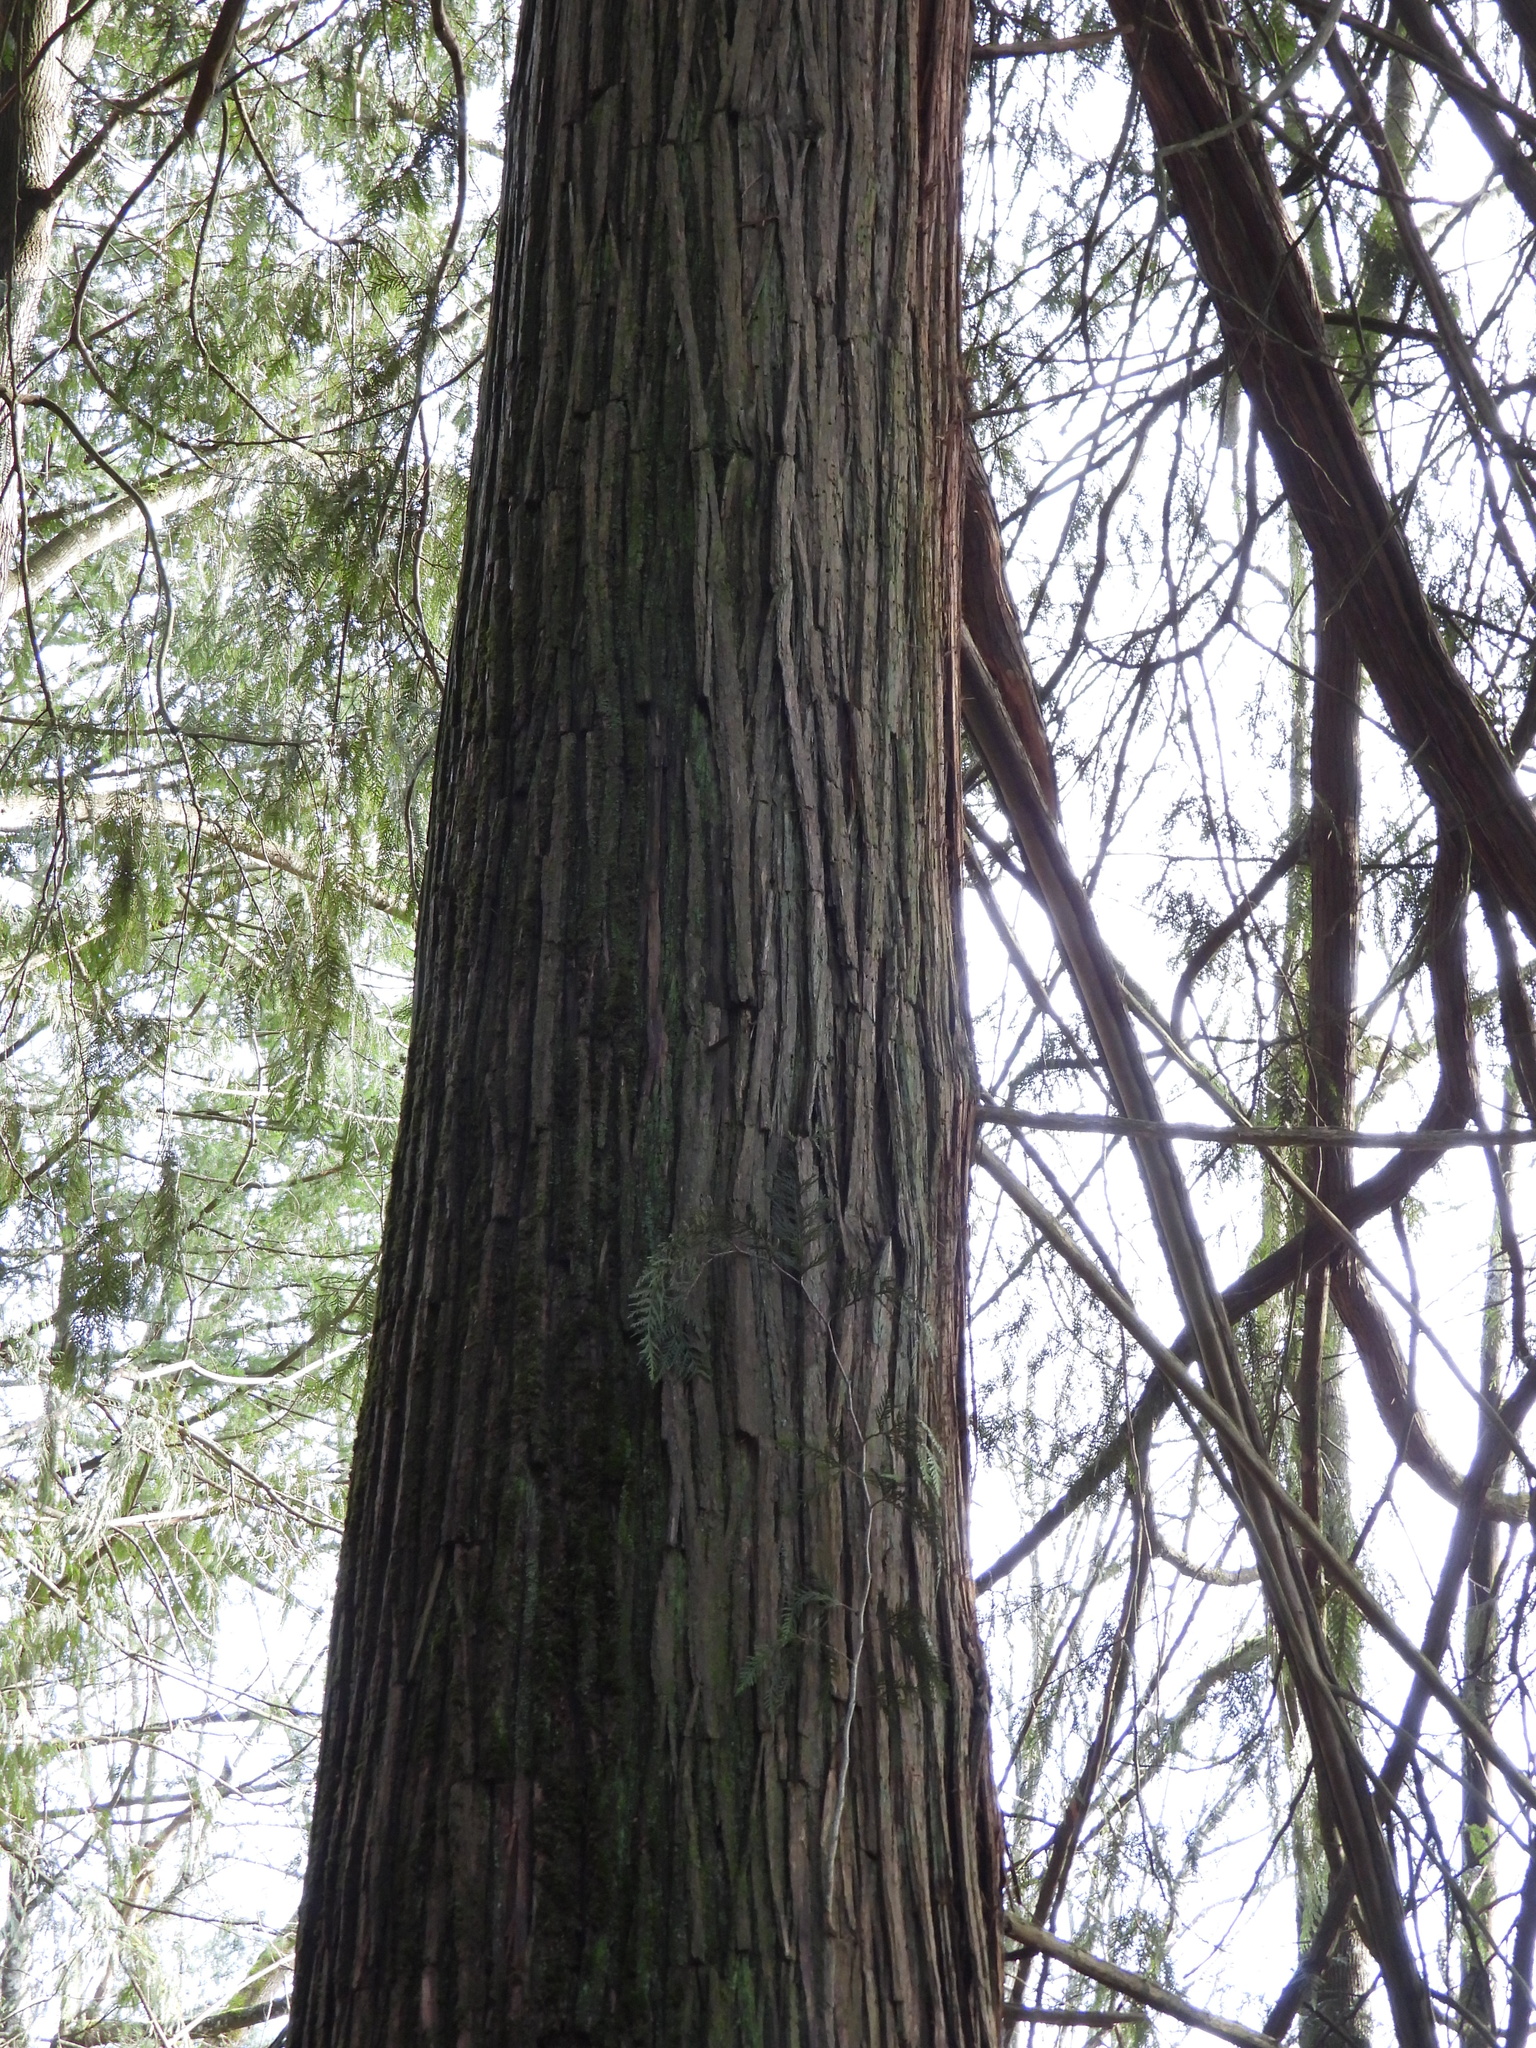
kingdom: Plantae
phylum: Tracheophyta
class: Pinopsida
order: Pinales
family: Cupressaceae
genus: Thuja
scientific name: Thuja plicata
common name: Western red-cedar
